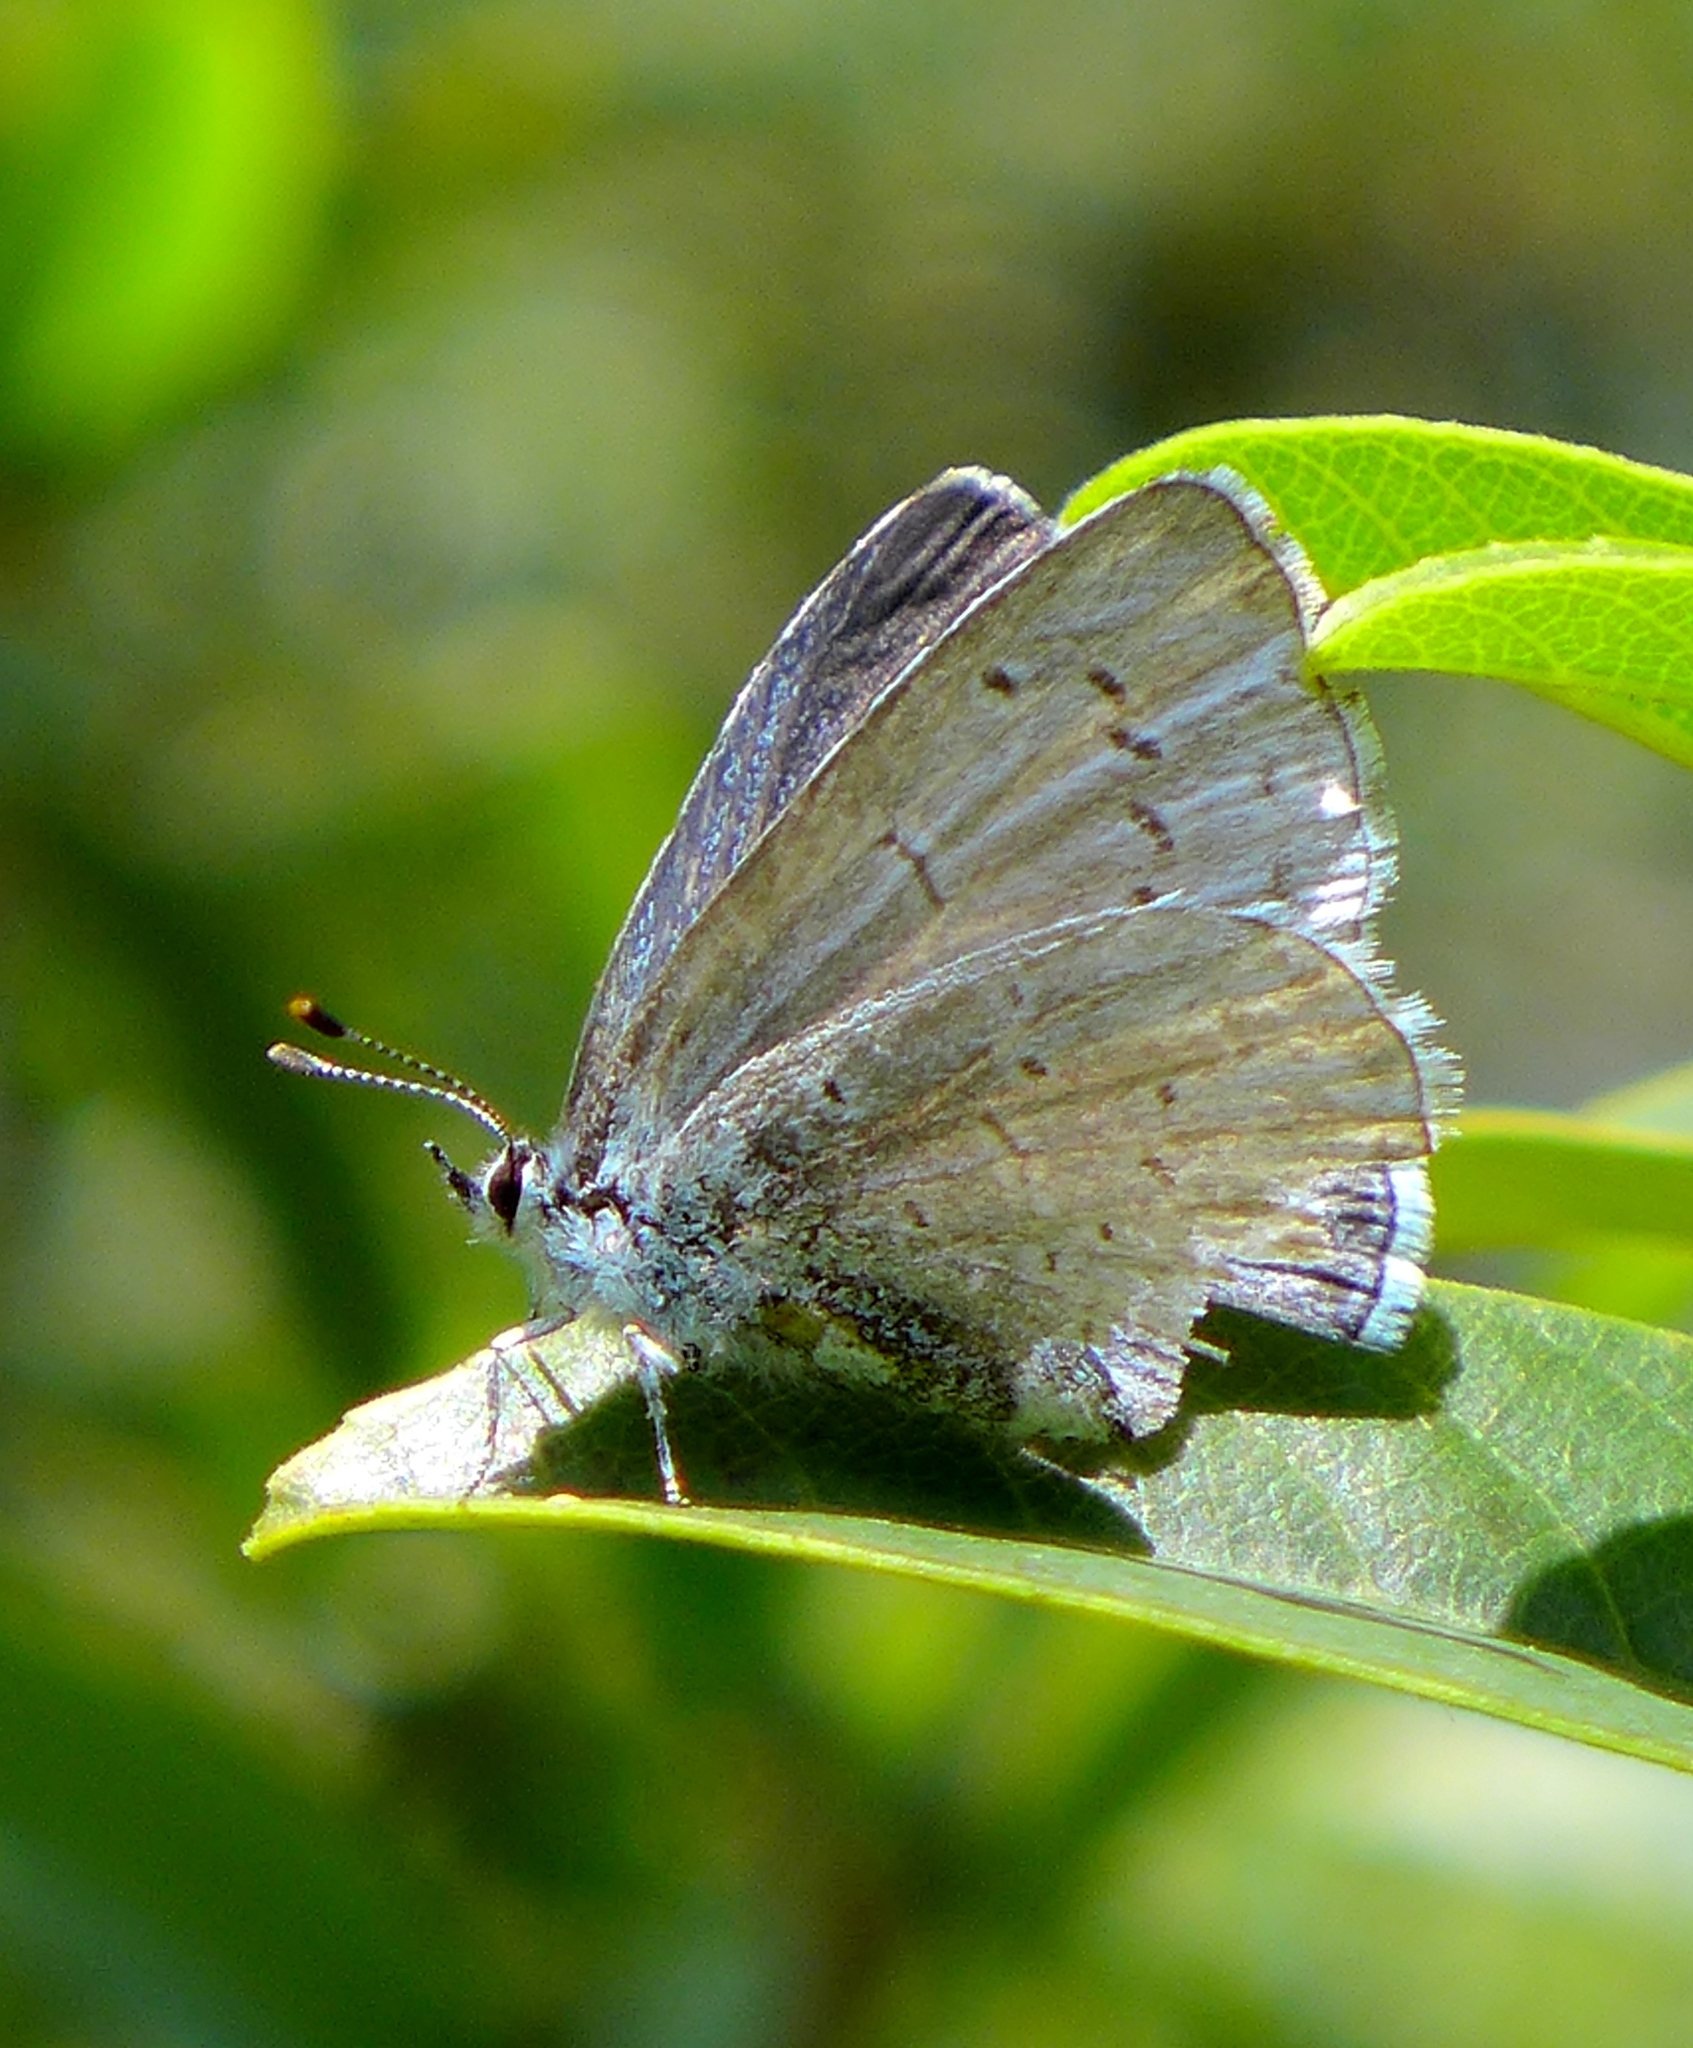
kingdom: Animalia
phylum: Arthropoda
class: Insecta
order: Lepidoptera
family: Lycaenidae
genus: Celastrina
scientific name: Celastrina ladon
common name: Spring azure
